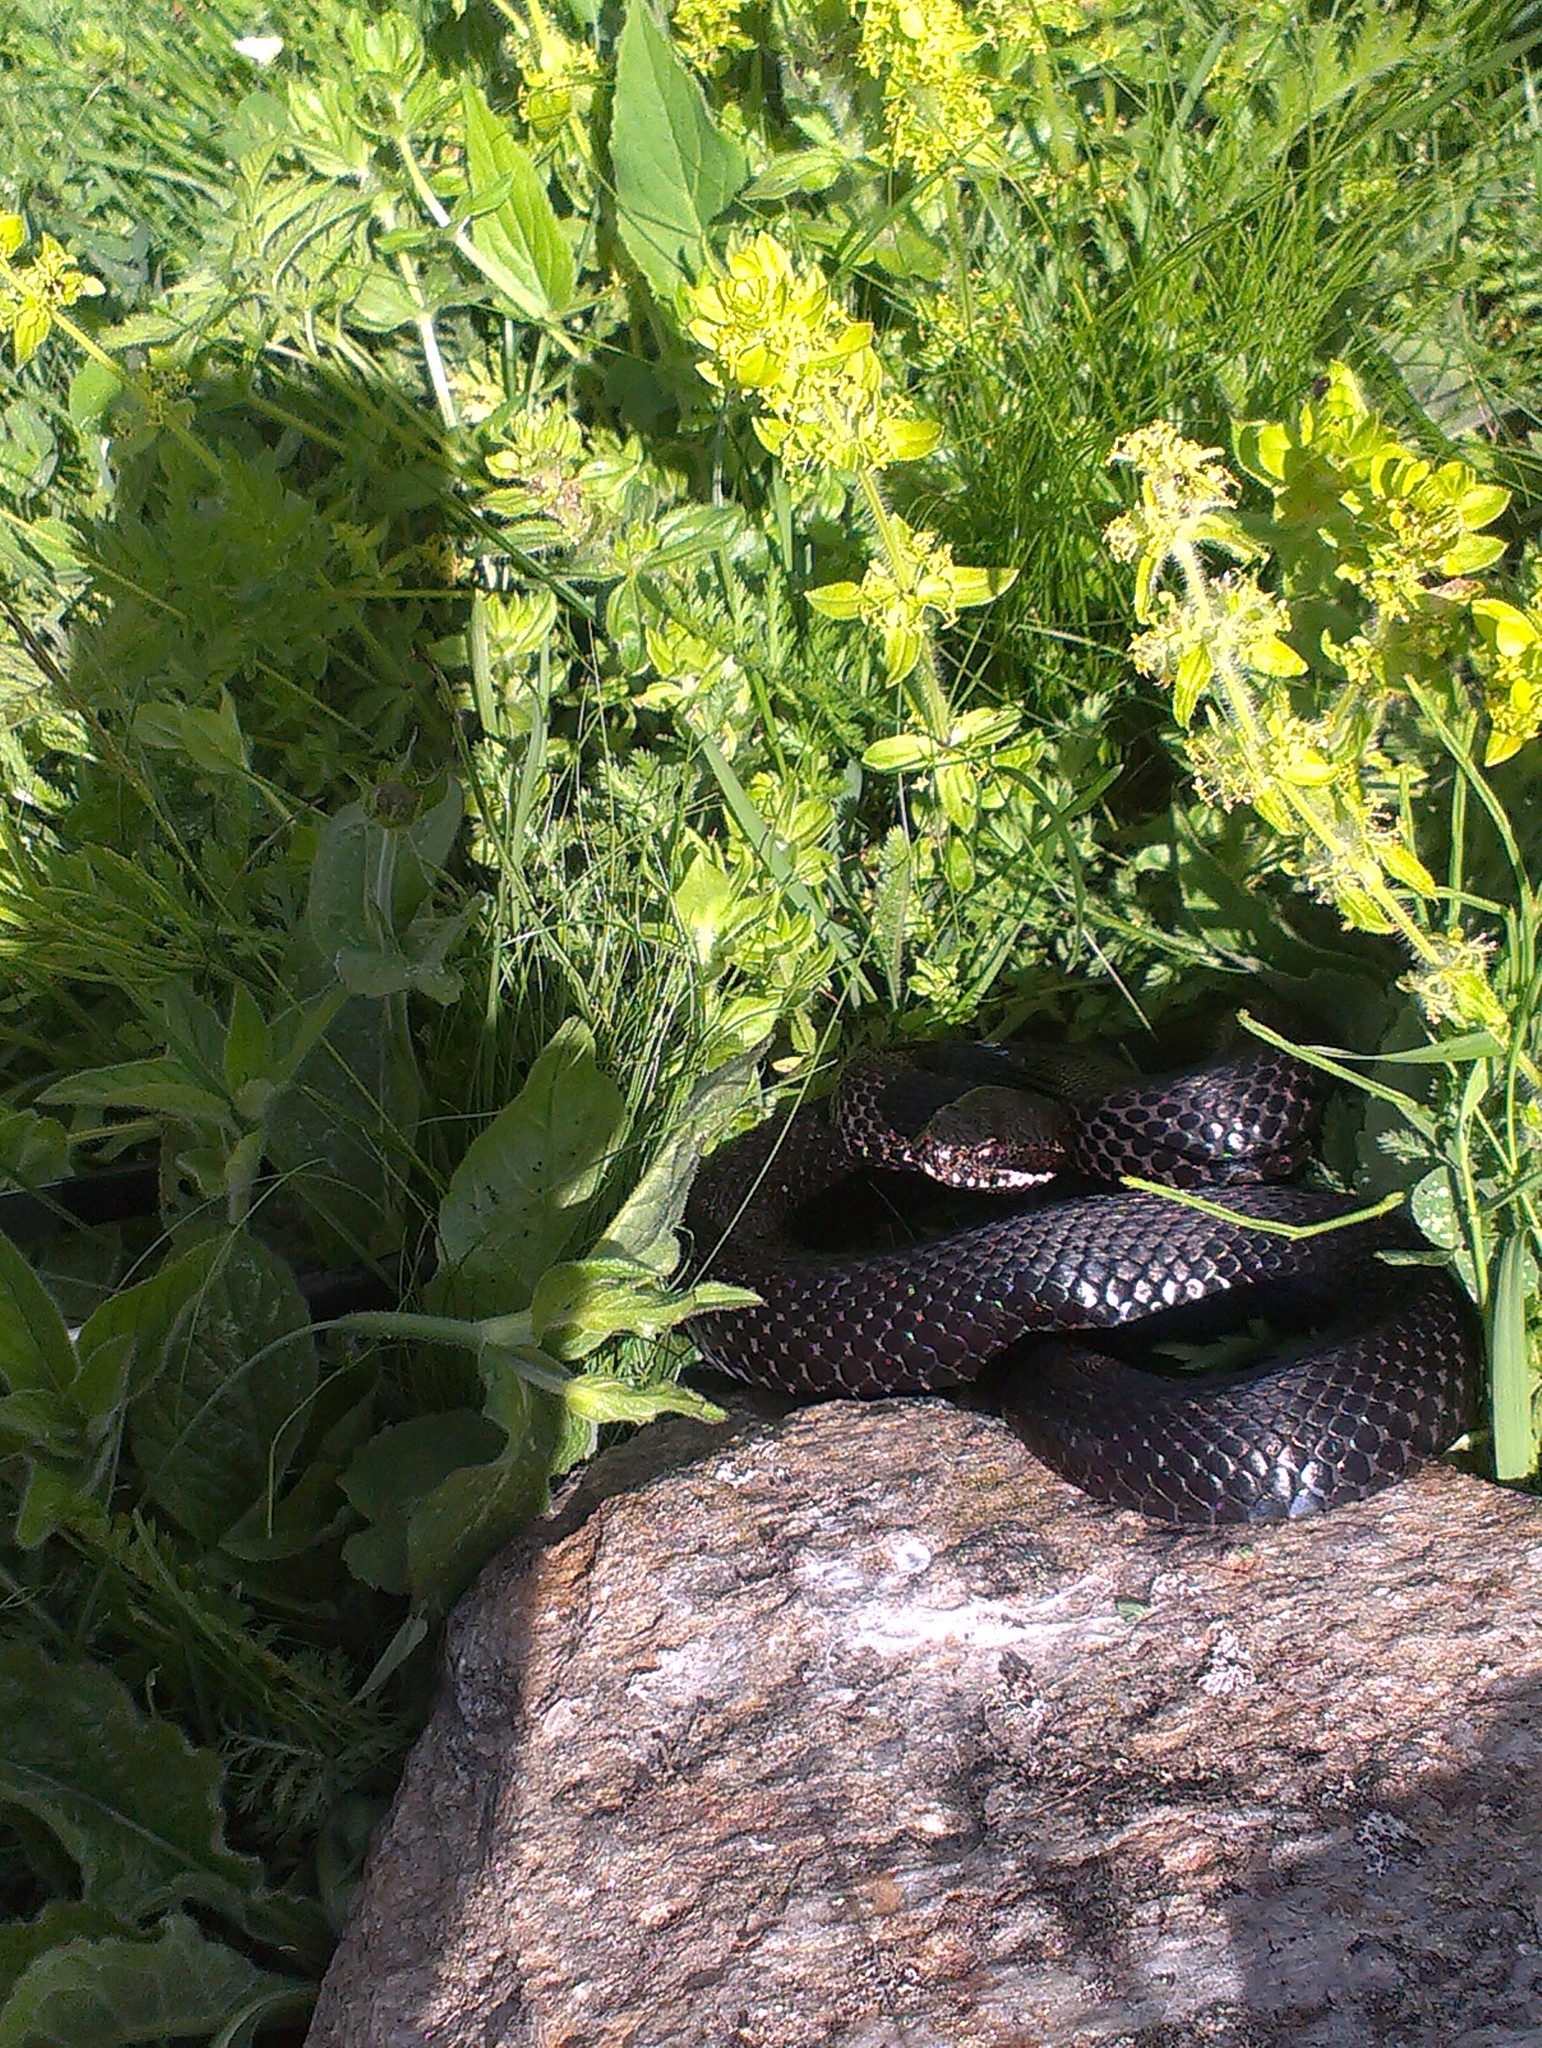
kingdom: Animalia
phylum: Chordata
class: Squamata
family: Viperidae
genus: Vipera
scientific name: Vipera berus
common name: Adder
